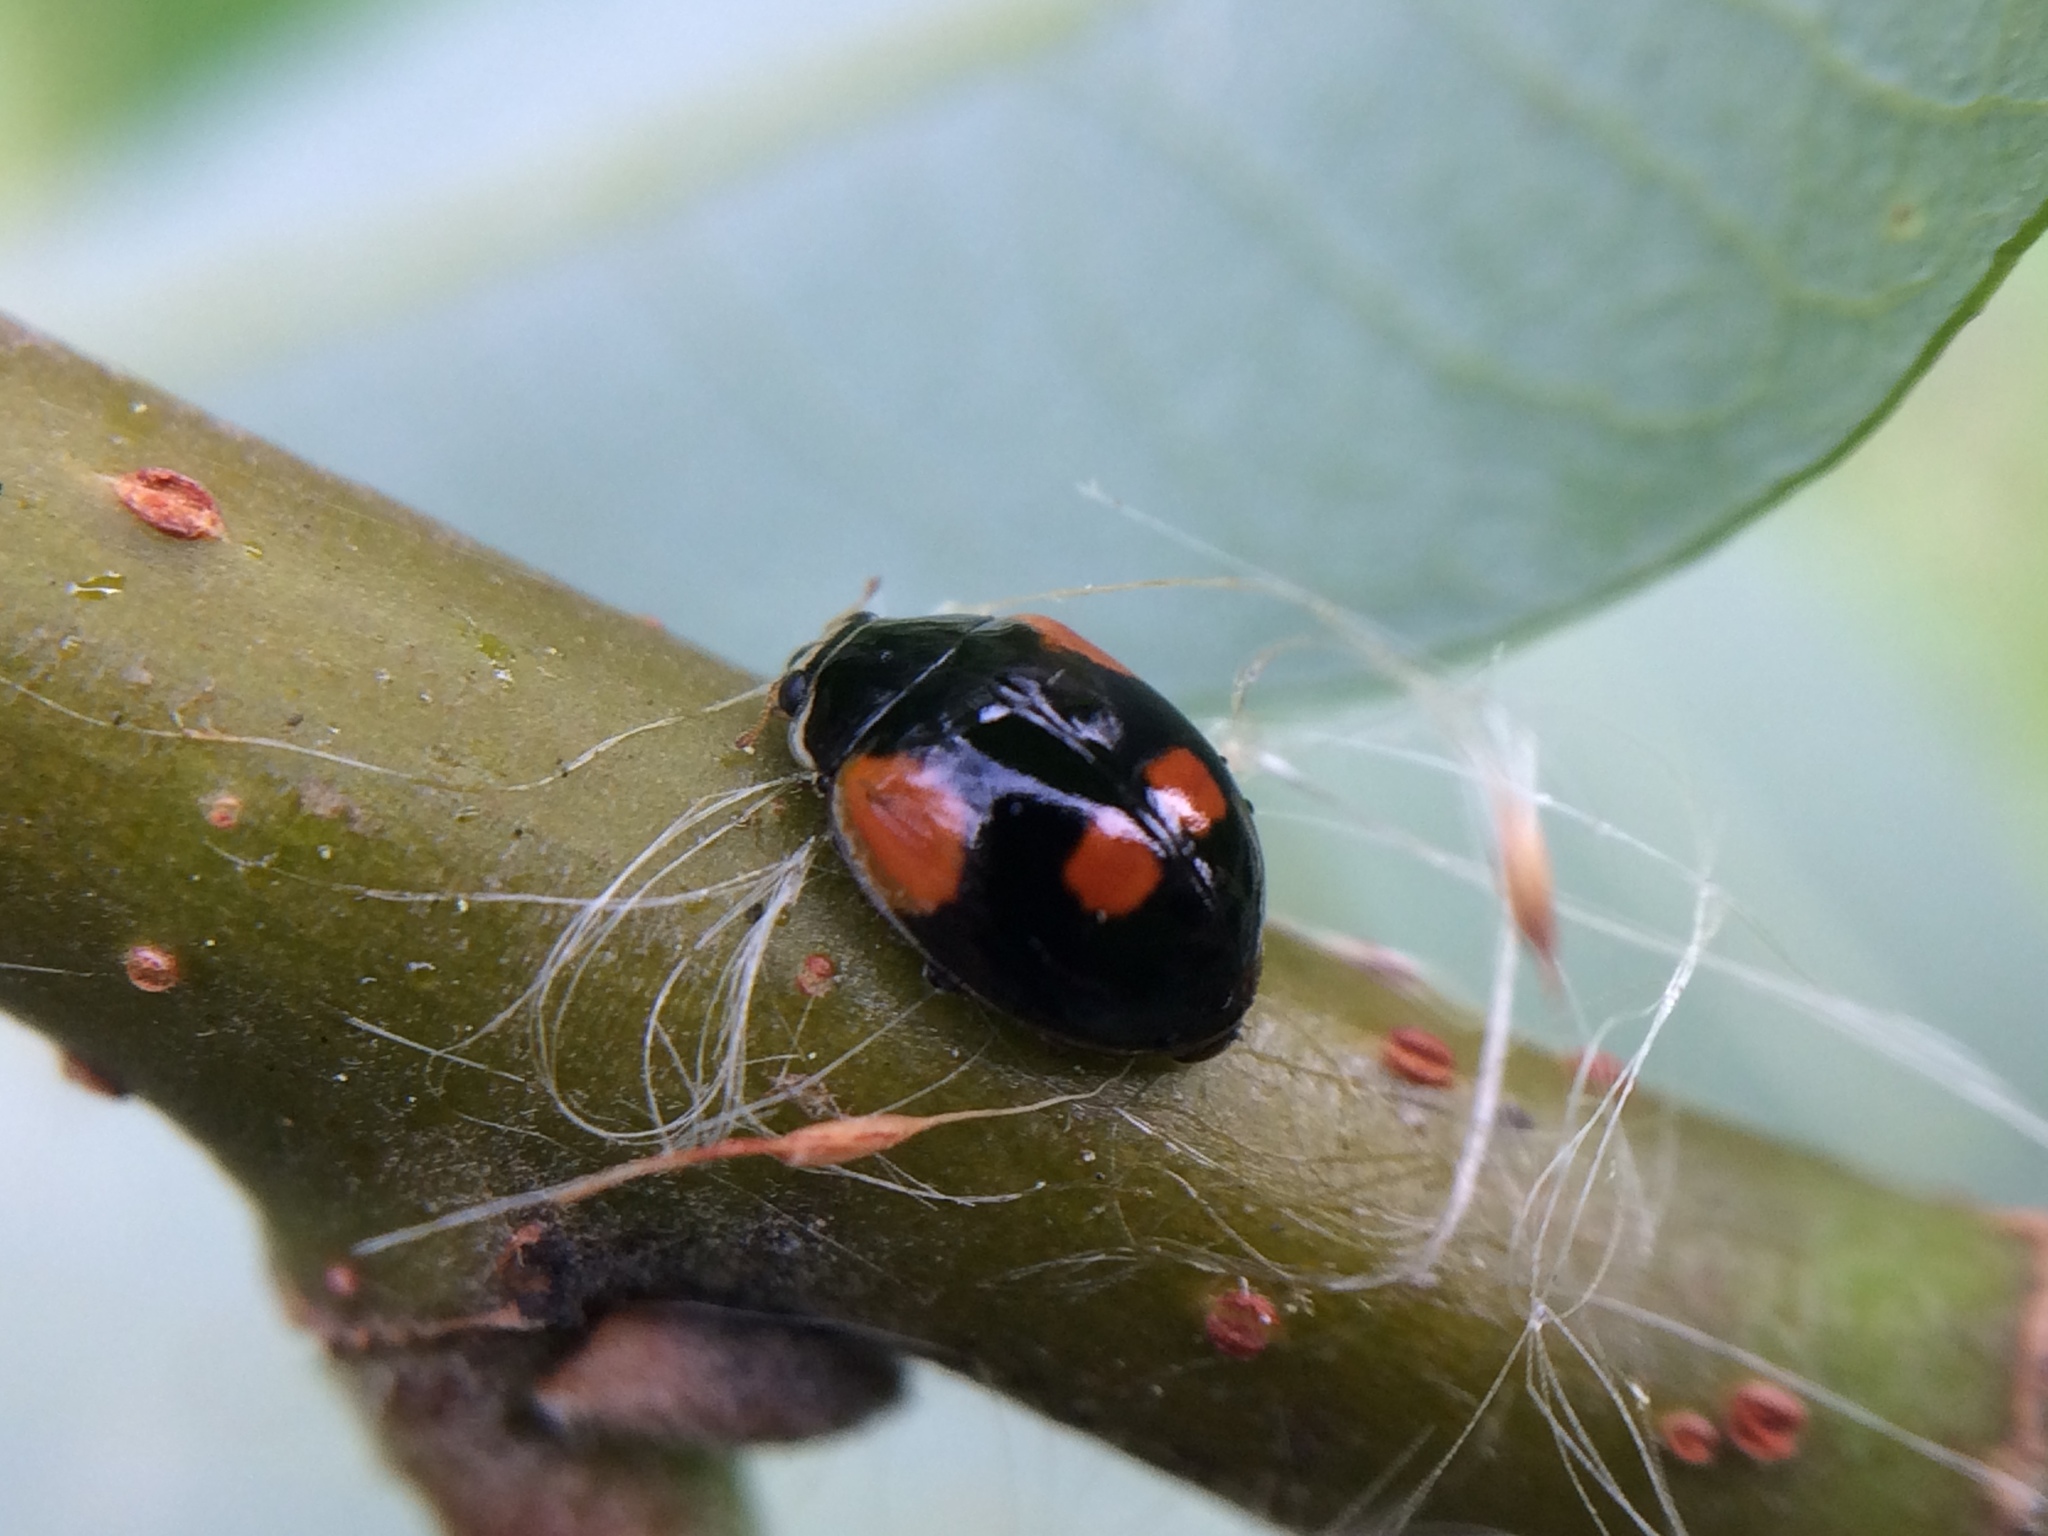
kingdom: Animalia
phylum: Arthropoda
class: Insecta
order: Coleoptera
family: Coccinellidae
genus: Adalia
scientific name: Adalia bipunctata
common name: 2-spot ladybird
